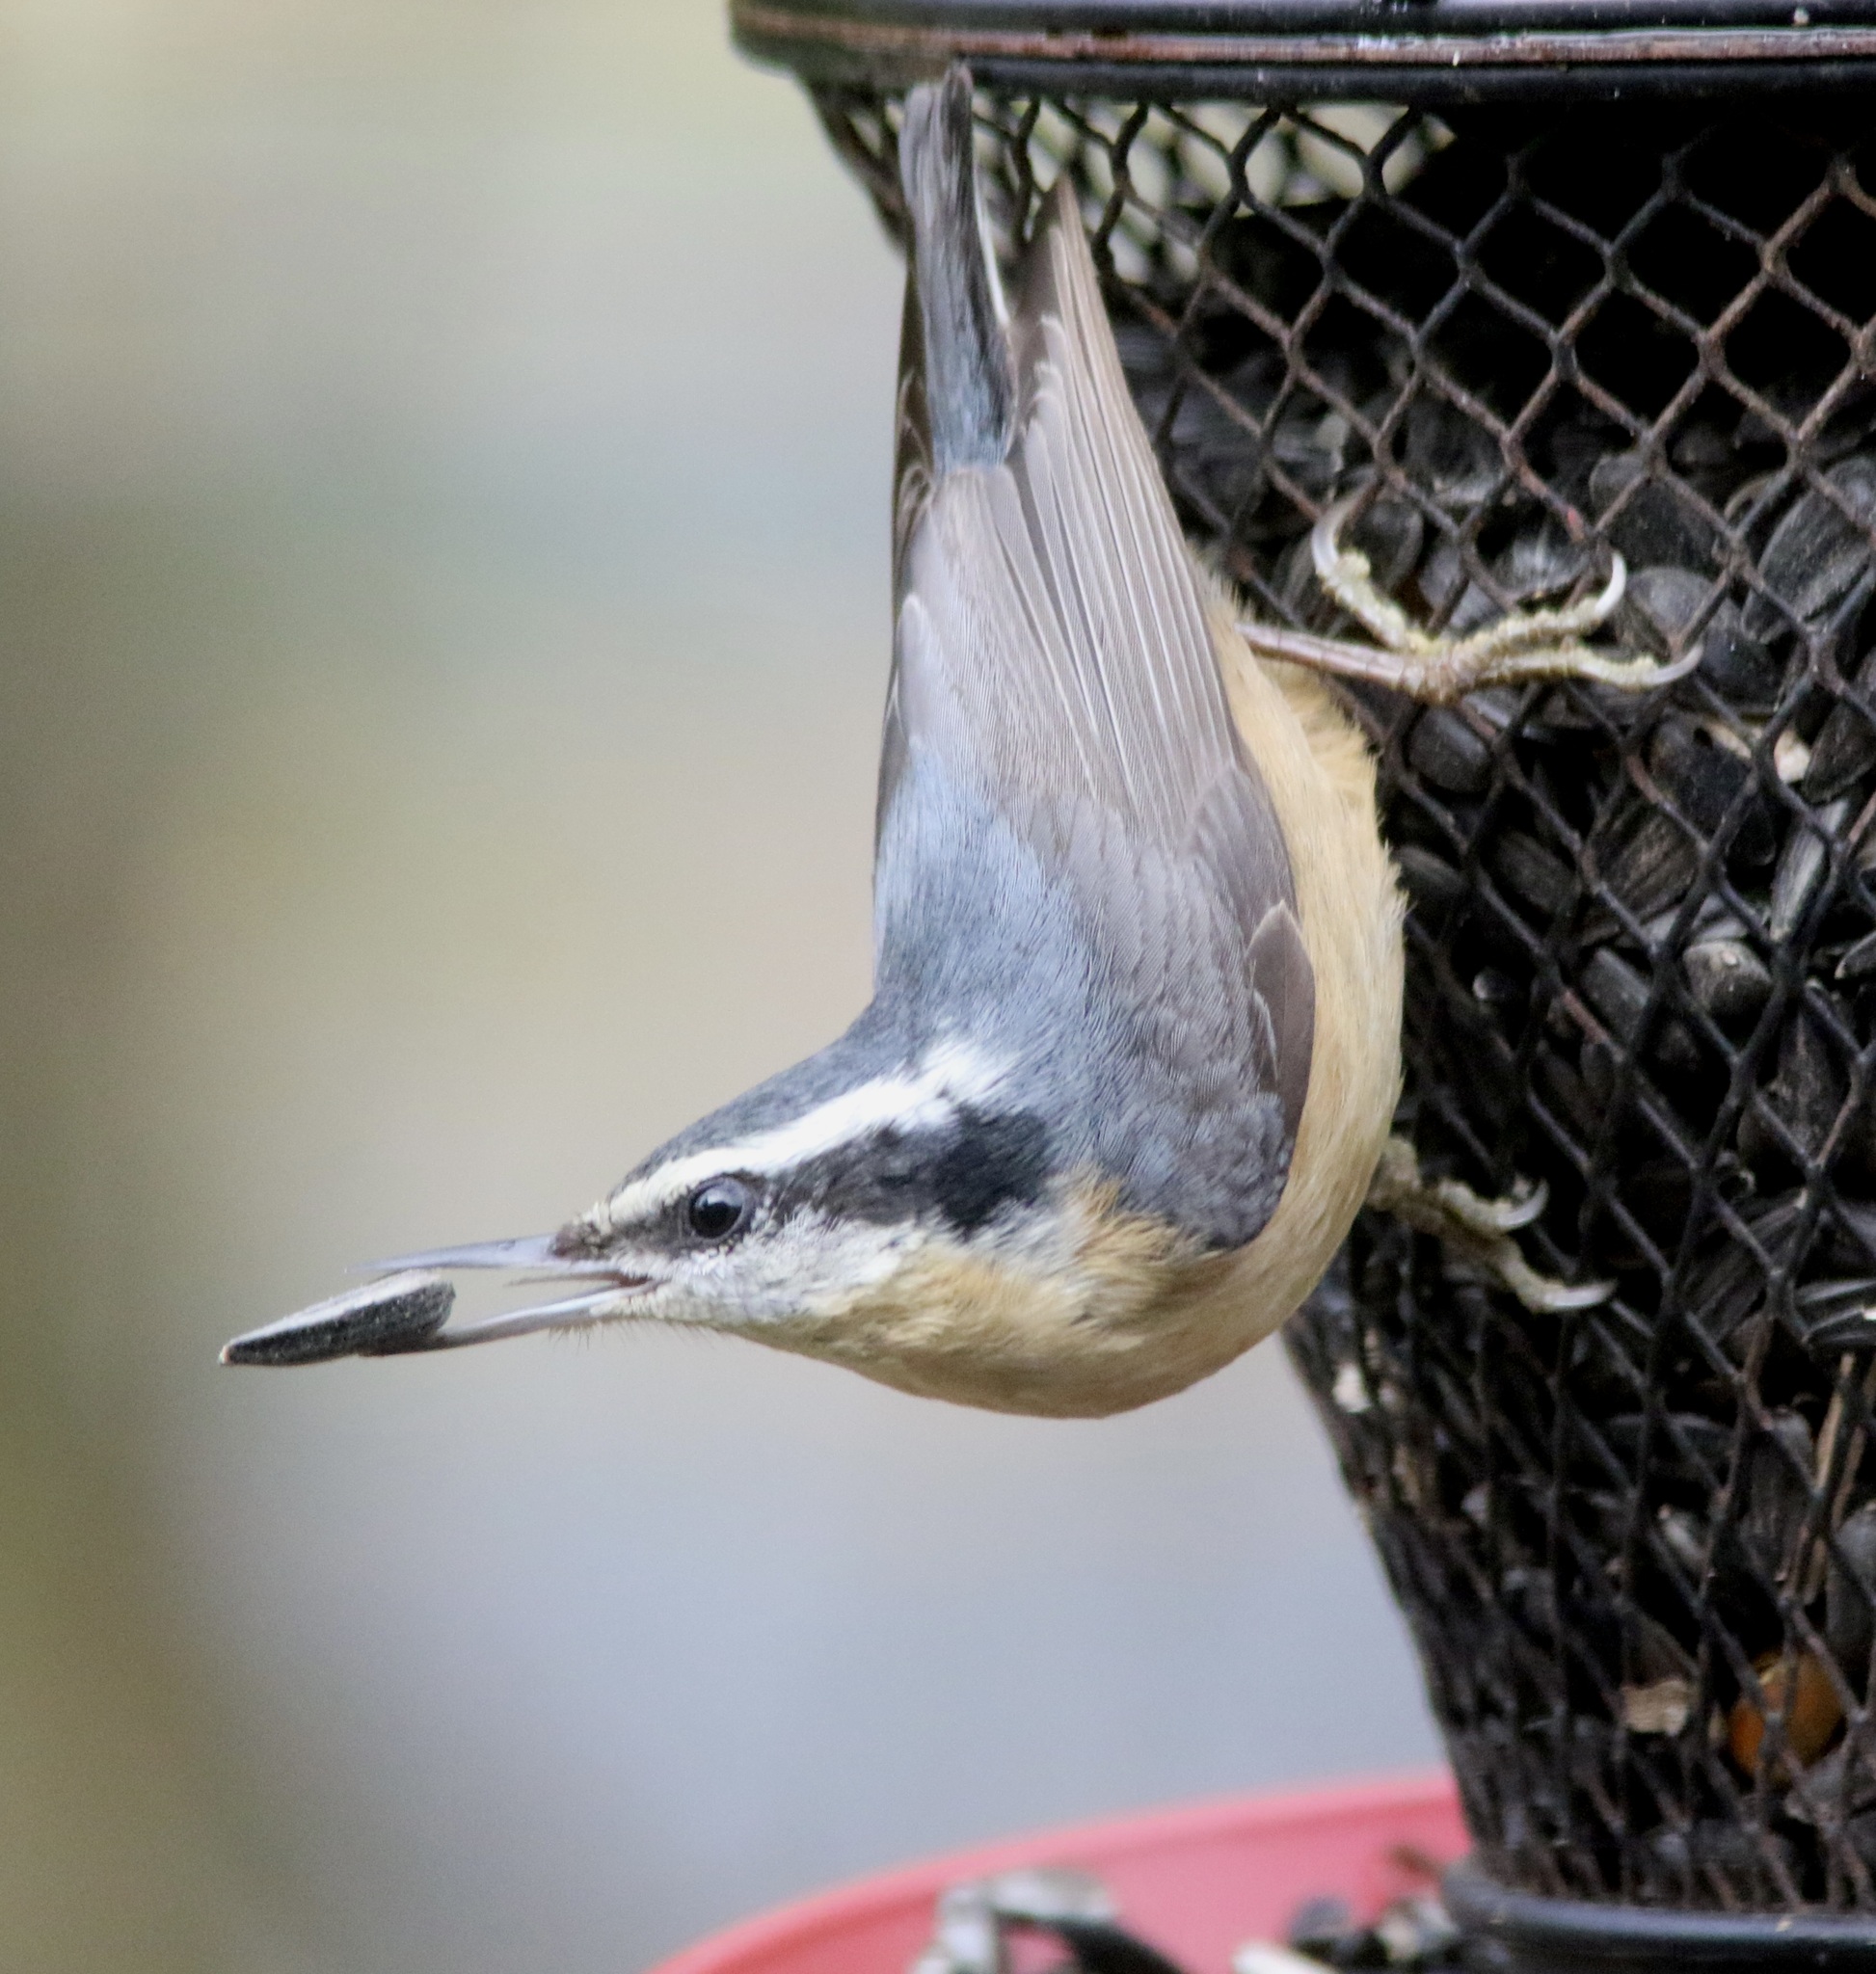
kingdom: Animalia
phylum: Chordata
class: Aves
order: Passeriformes
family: Sittidae
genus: Sitta
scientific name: Sitta canadensis
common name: Red-breasted nuthatch
